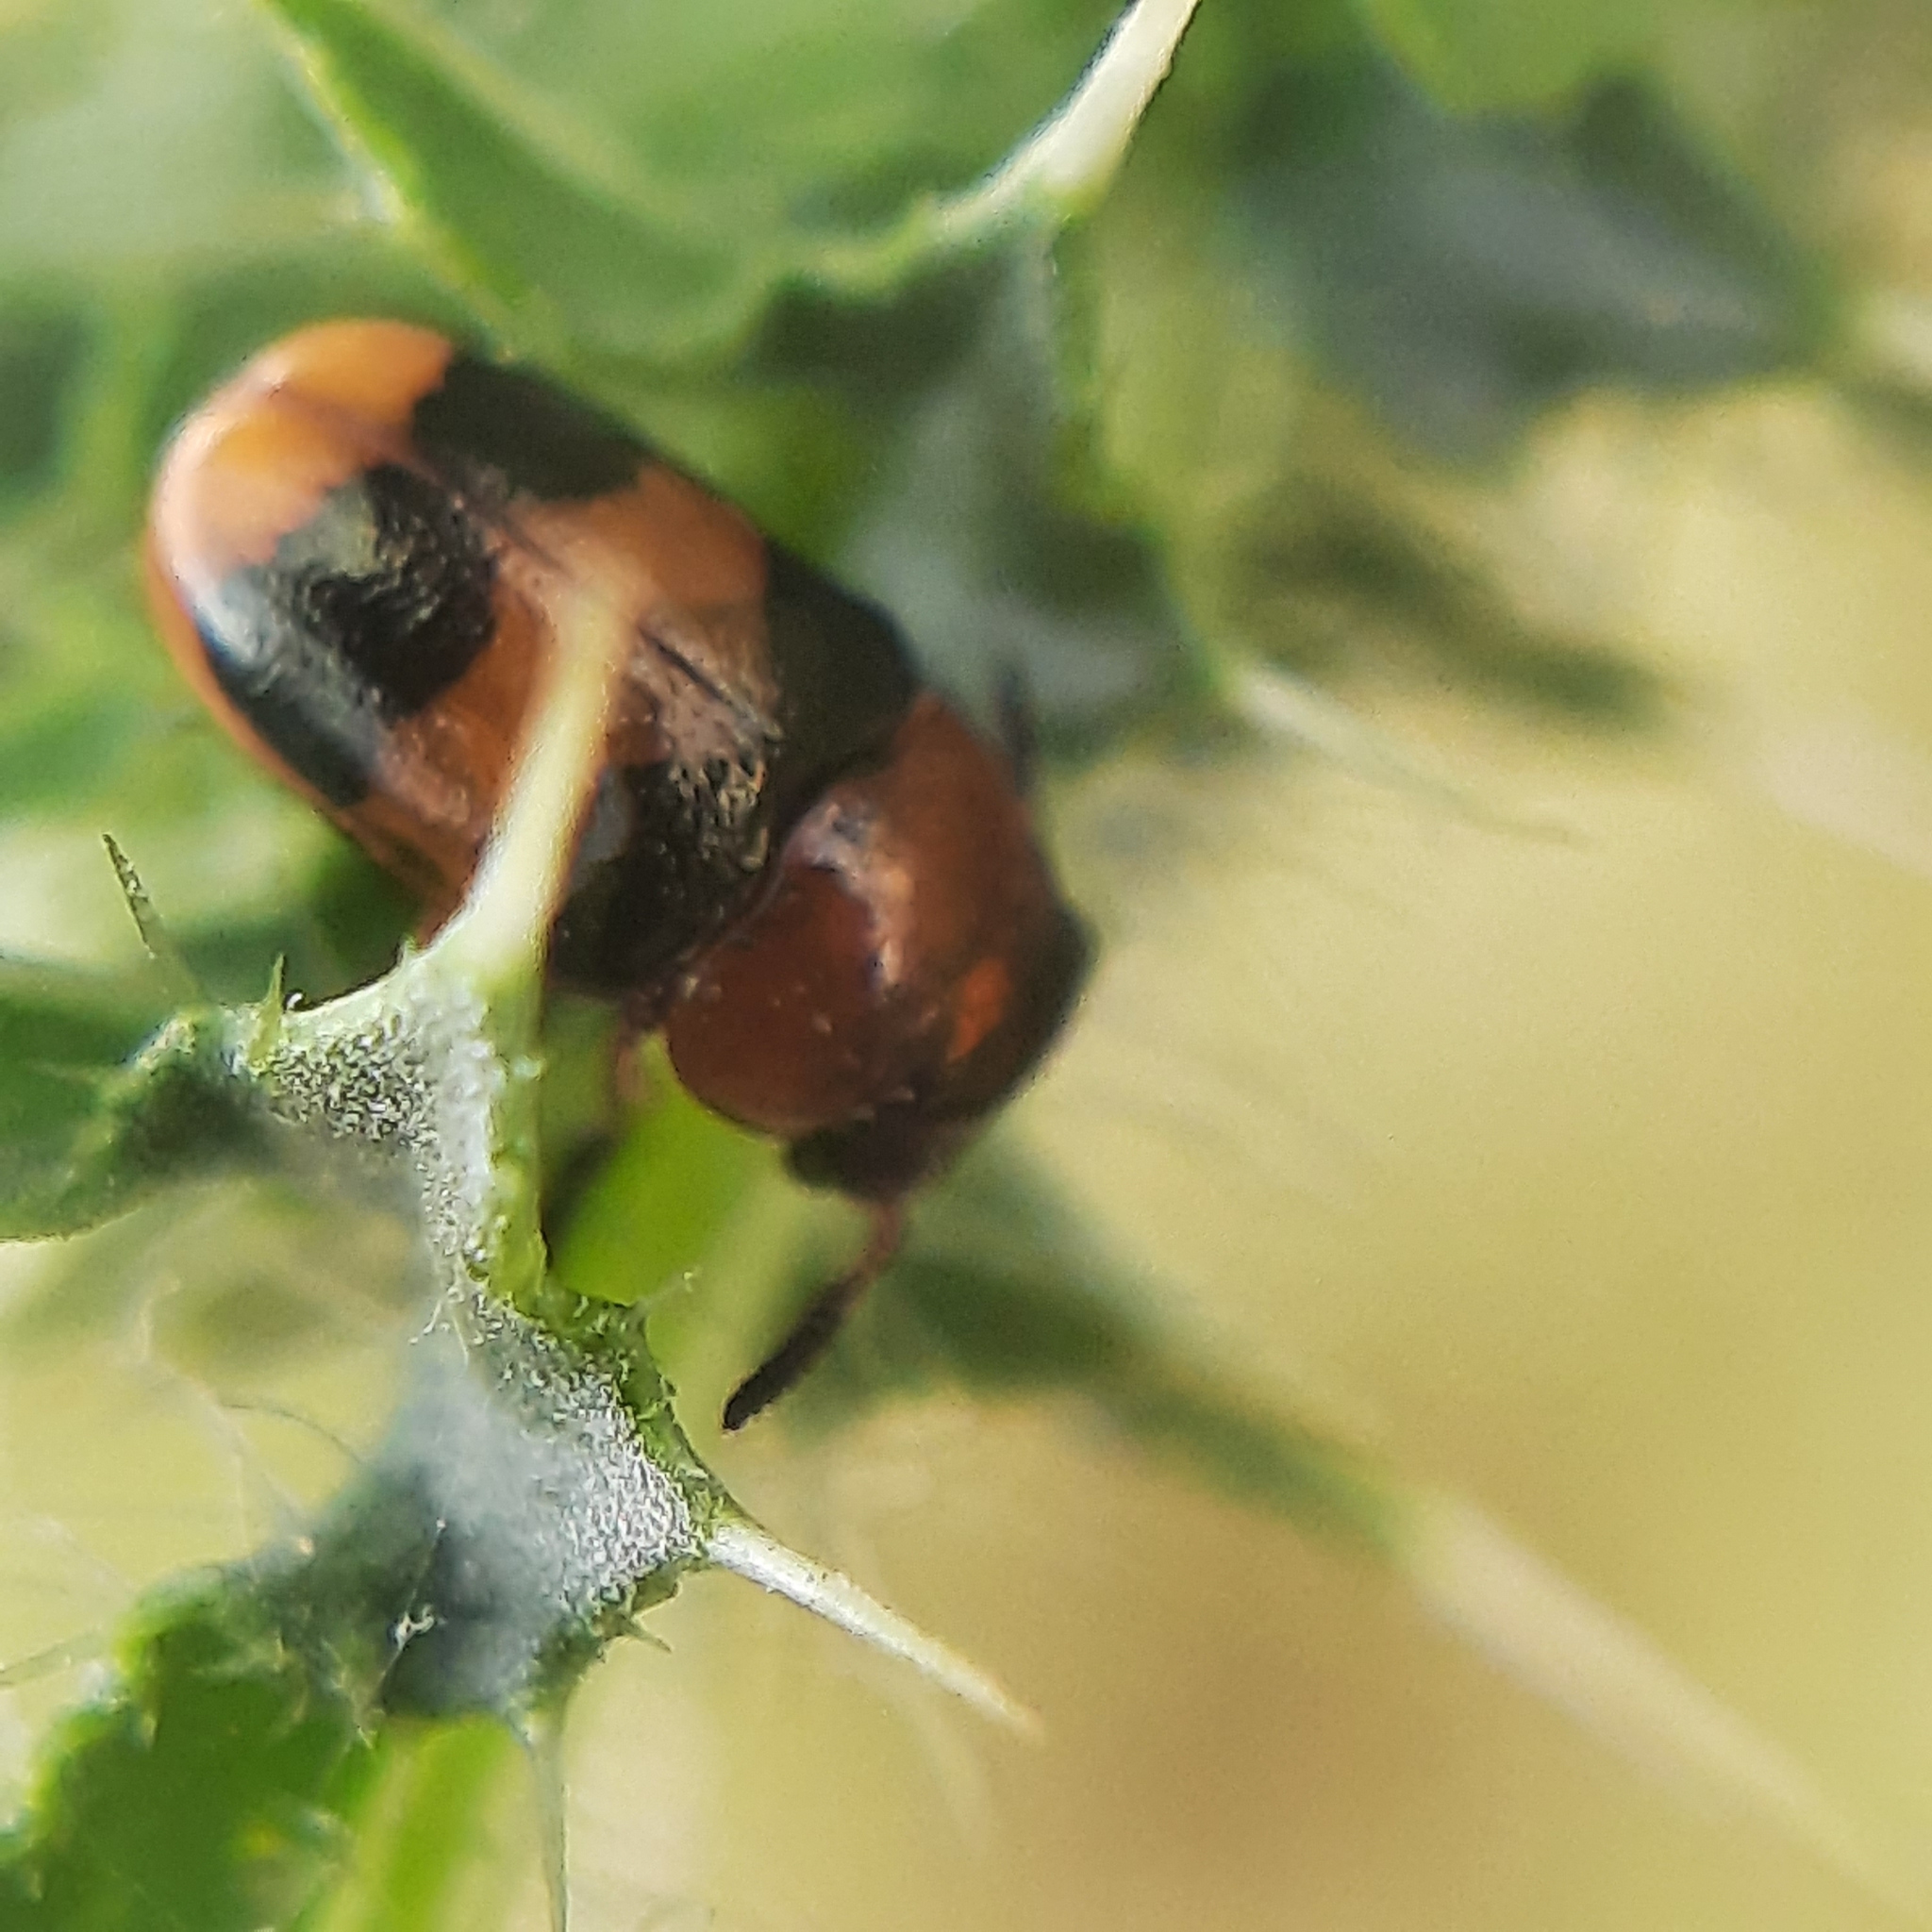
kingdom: Animalia
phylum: Arthropoda
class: Insecta
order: Coleoptera
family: Chrysomelidae
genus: Coptocephala
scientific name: Coptocephala
